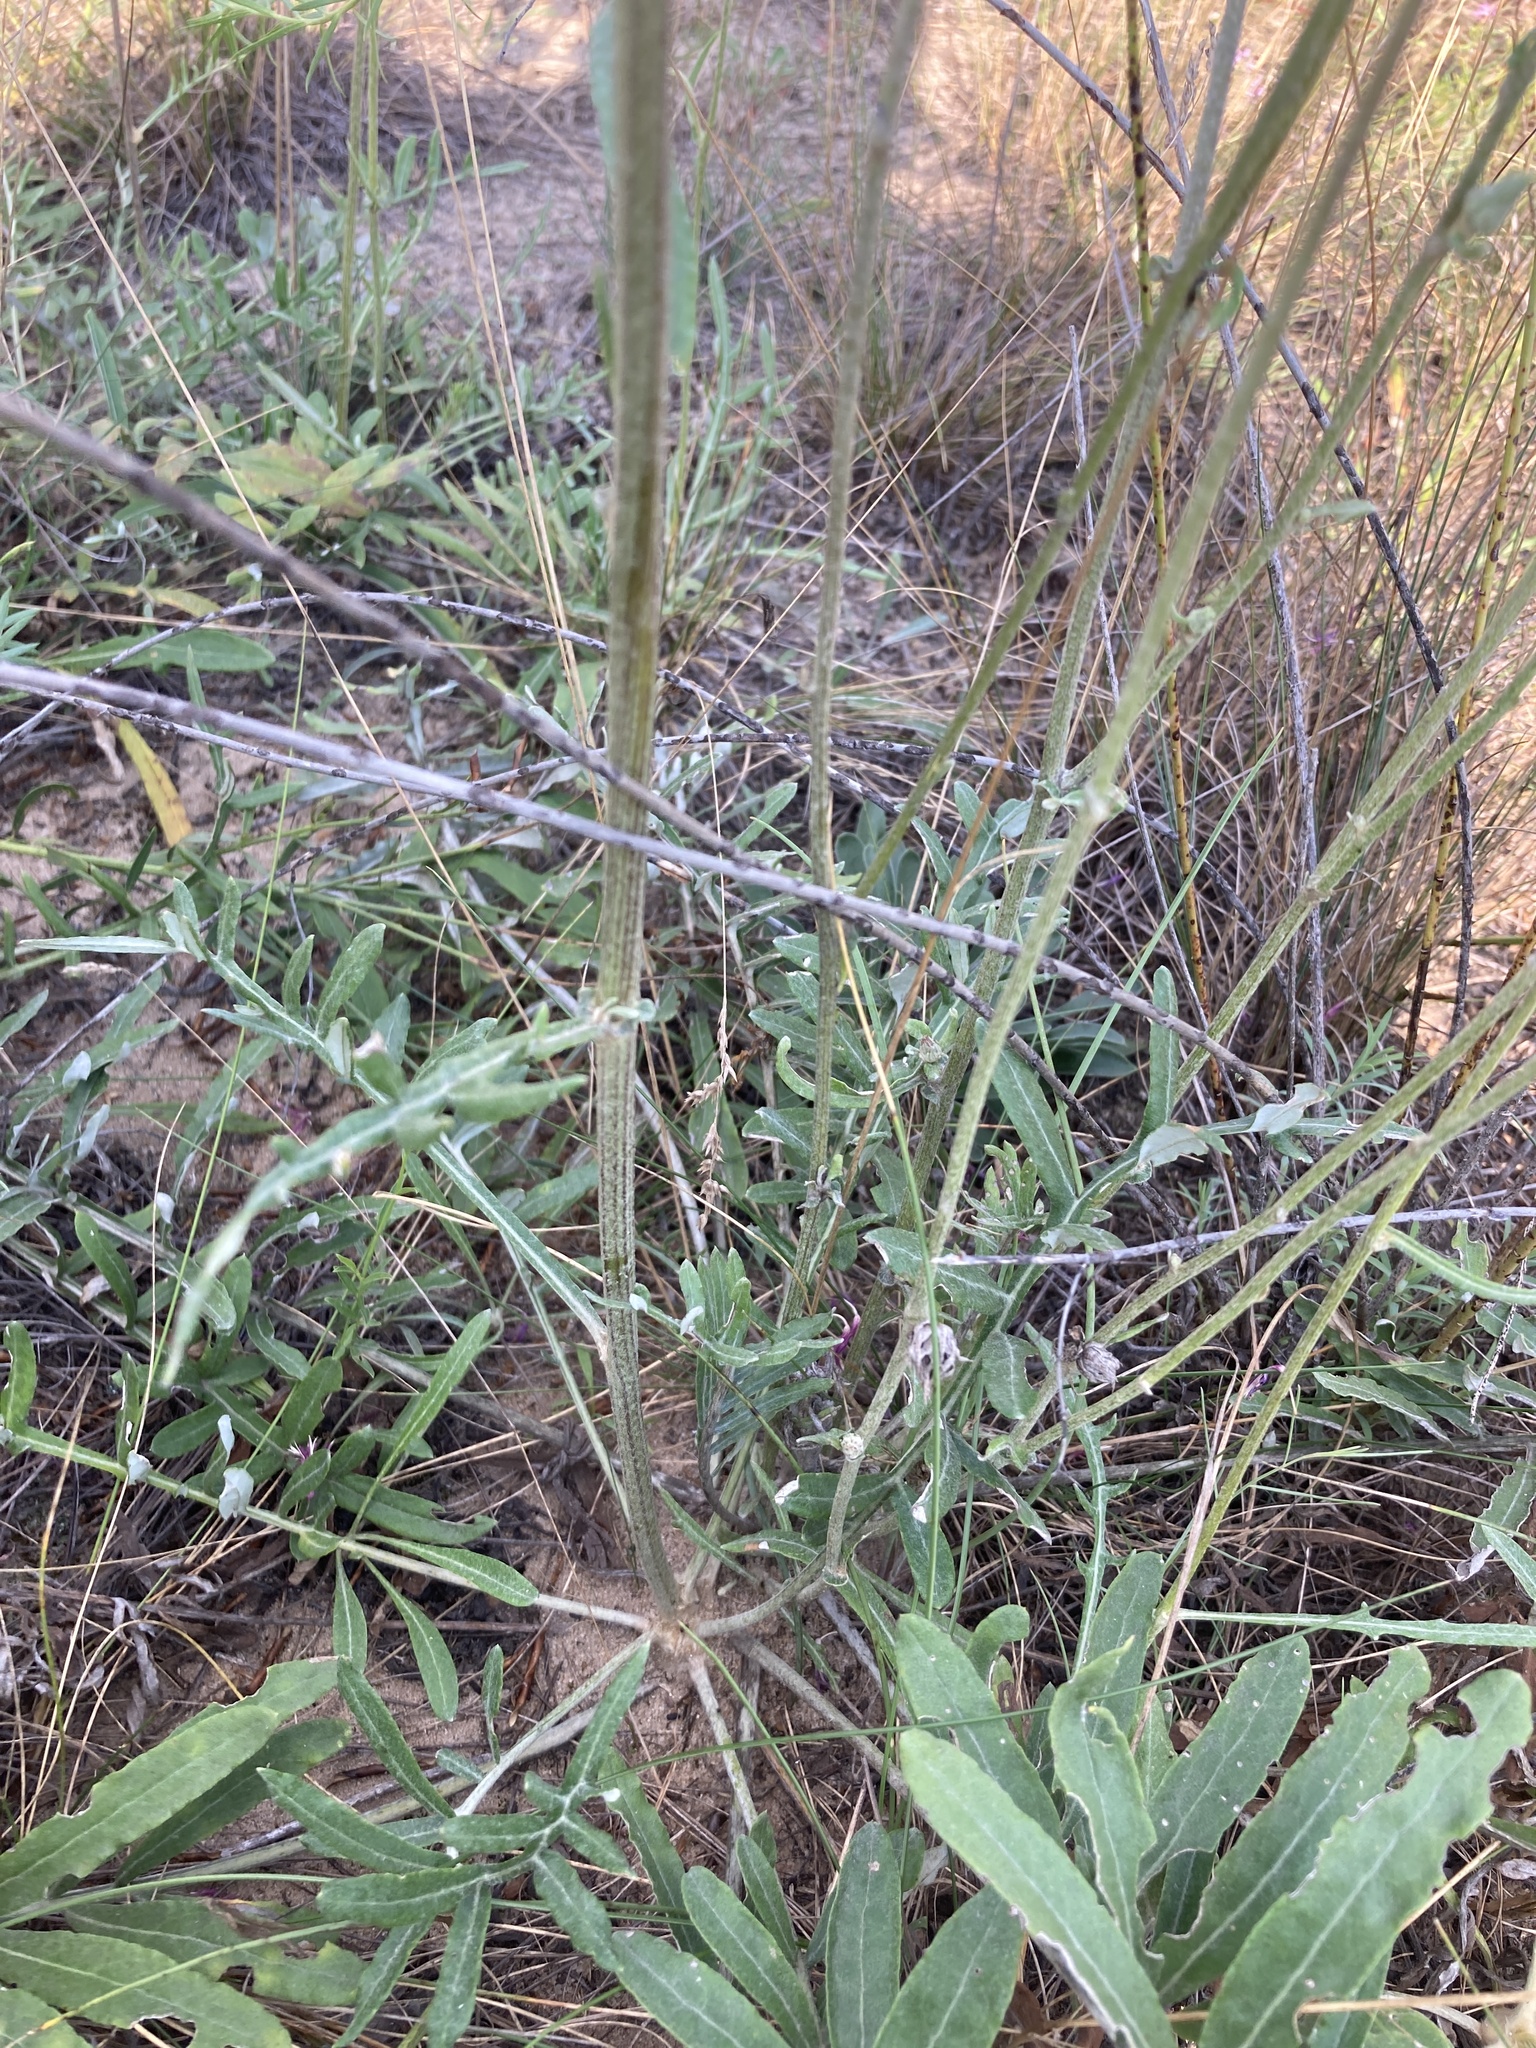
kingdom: Plantae
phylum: Tracheophyta
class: Magnoliopsida
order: Asterales
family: Asteraceae
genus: Jurinea
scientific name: Jurinea cyanoides
